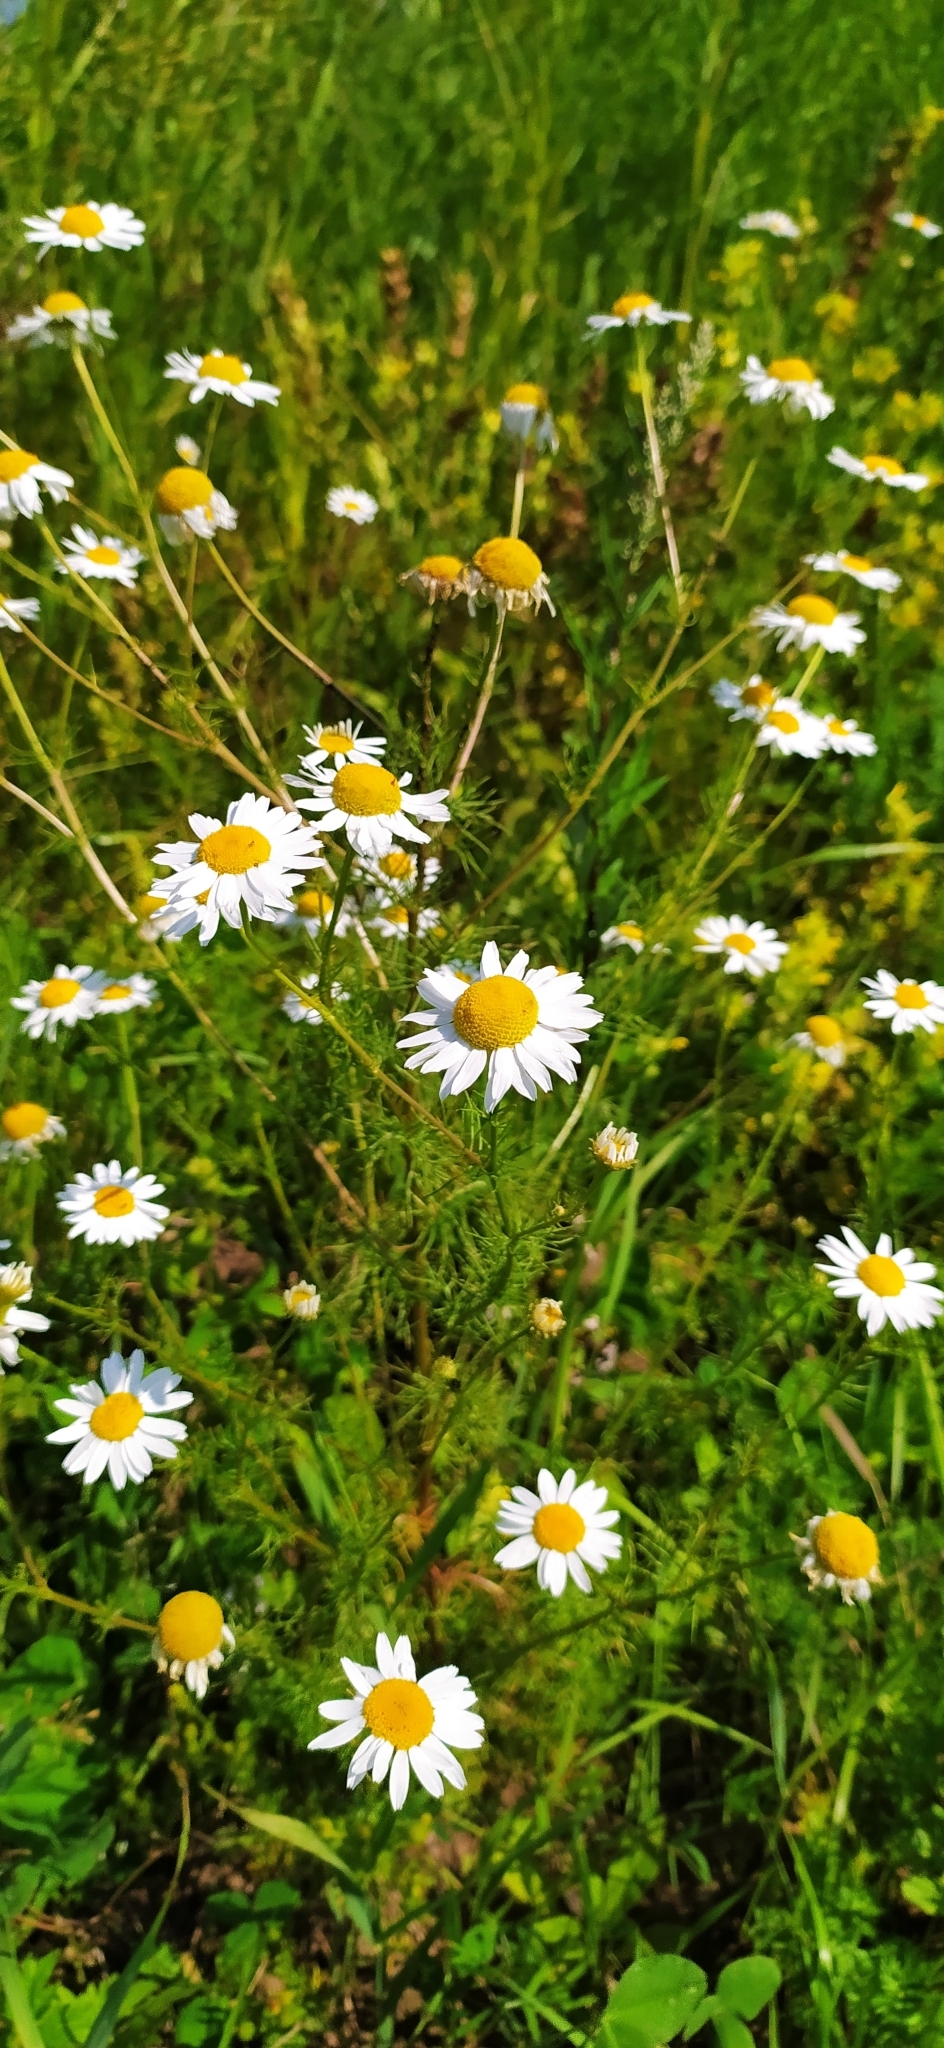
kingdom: Plantae
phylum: Tracheophyta
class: Magnoliopsida
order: Asterales
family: Asteraceae
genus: Tripleurospermum
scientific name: Tripleurospermum inodorum
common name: Scentless mayweed
